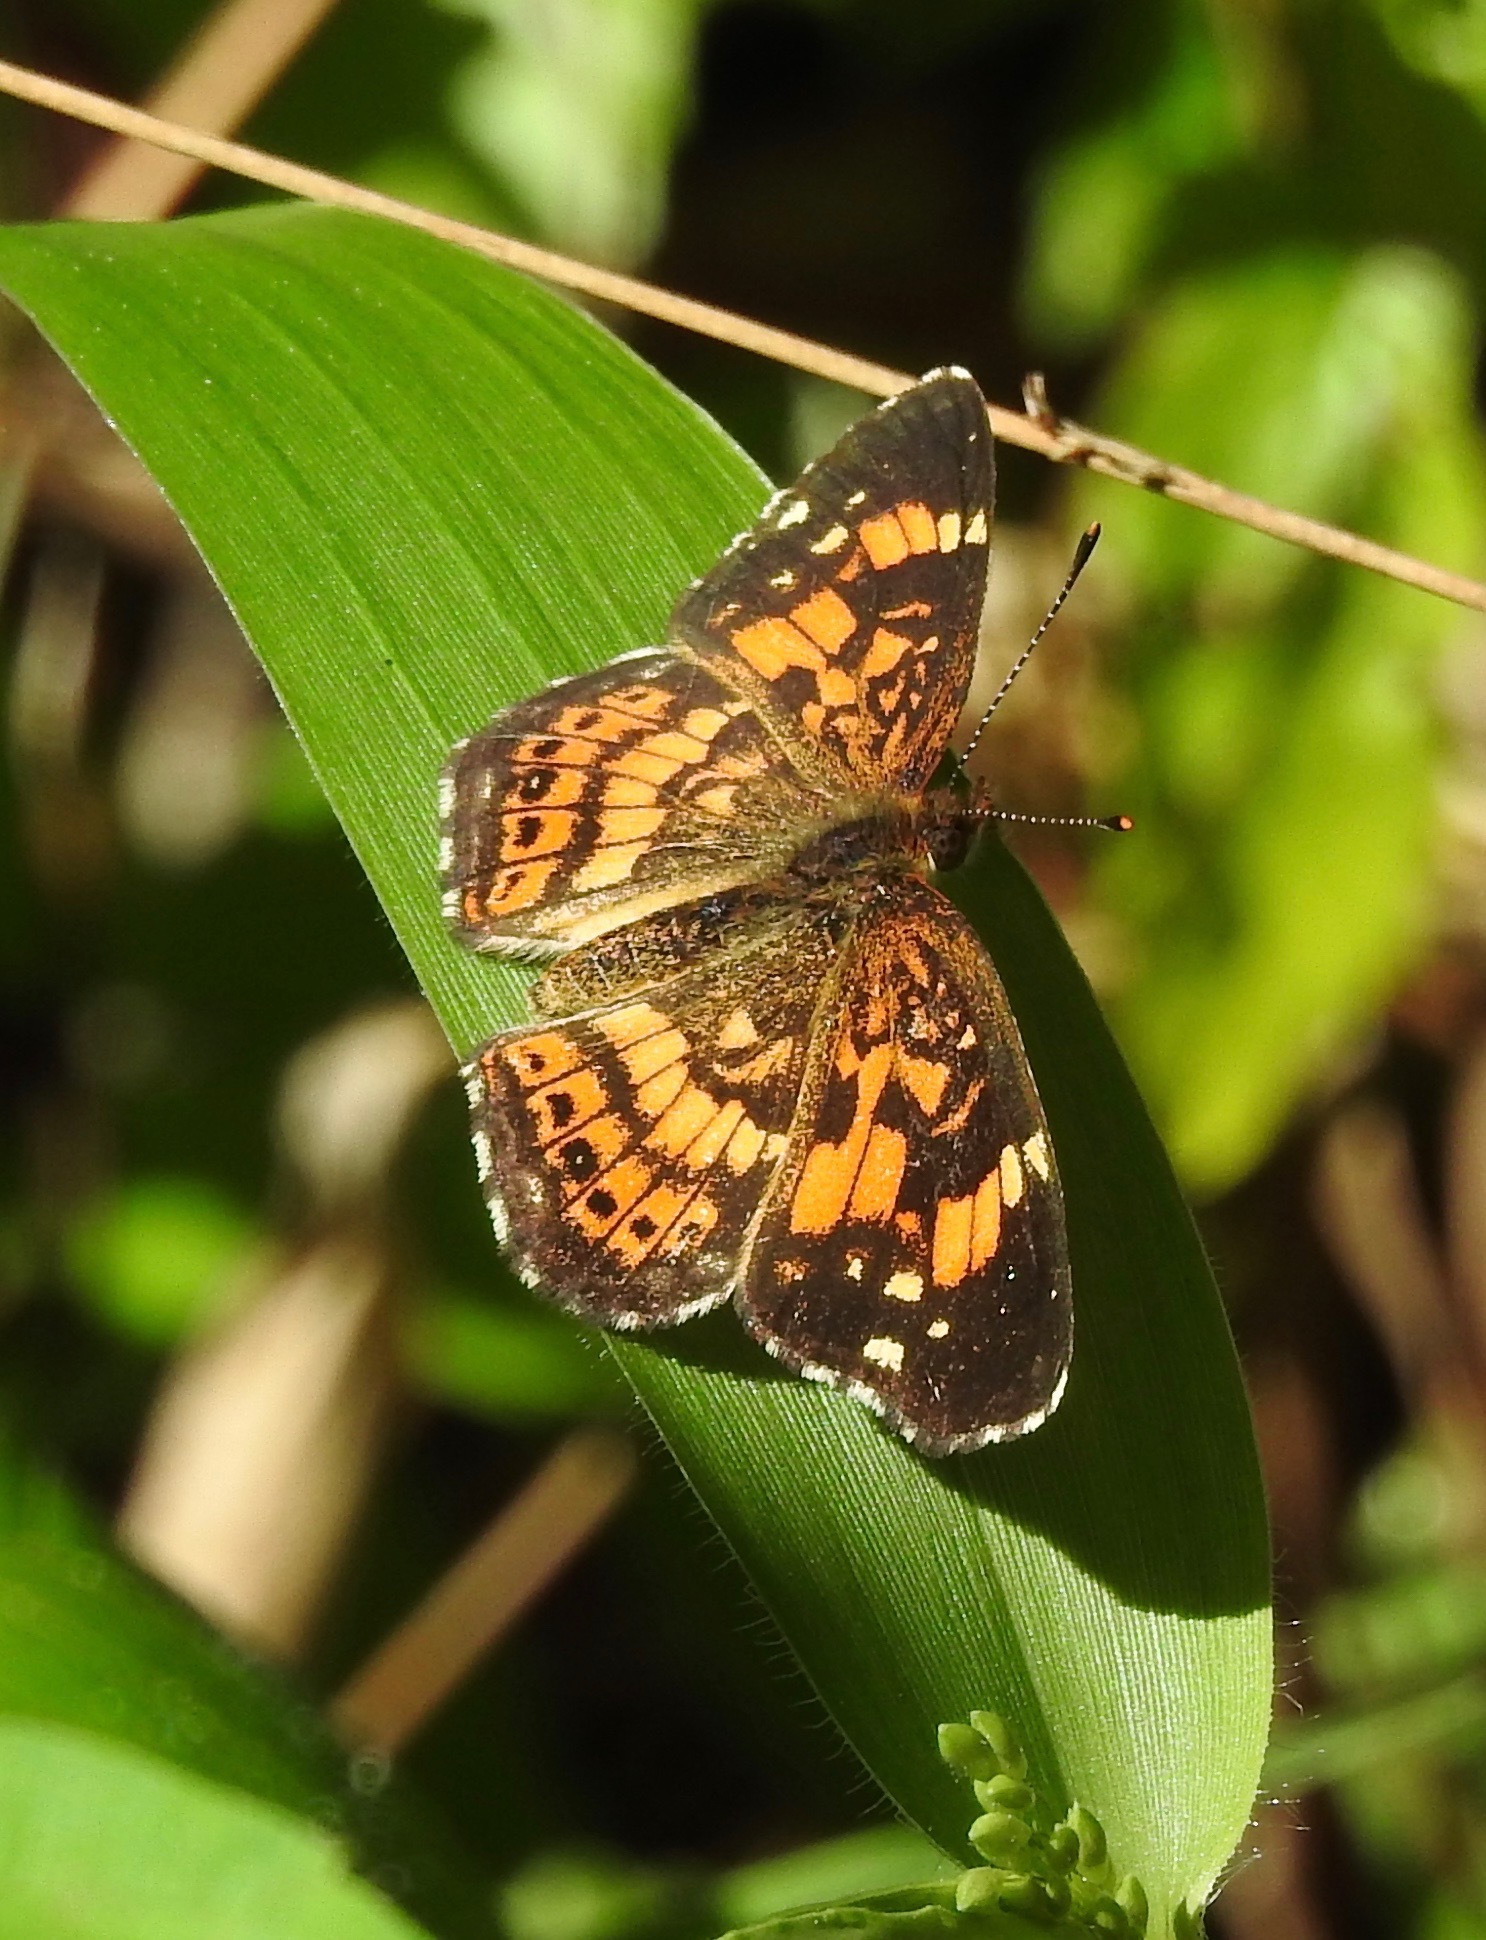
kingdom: Animalia
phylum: Arthropoda
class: Insecta
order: Lepidoptera
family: Nymphalidae
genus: Chlosyne
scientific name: Chlosyne nycteis
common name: Silvery checkerspot
